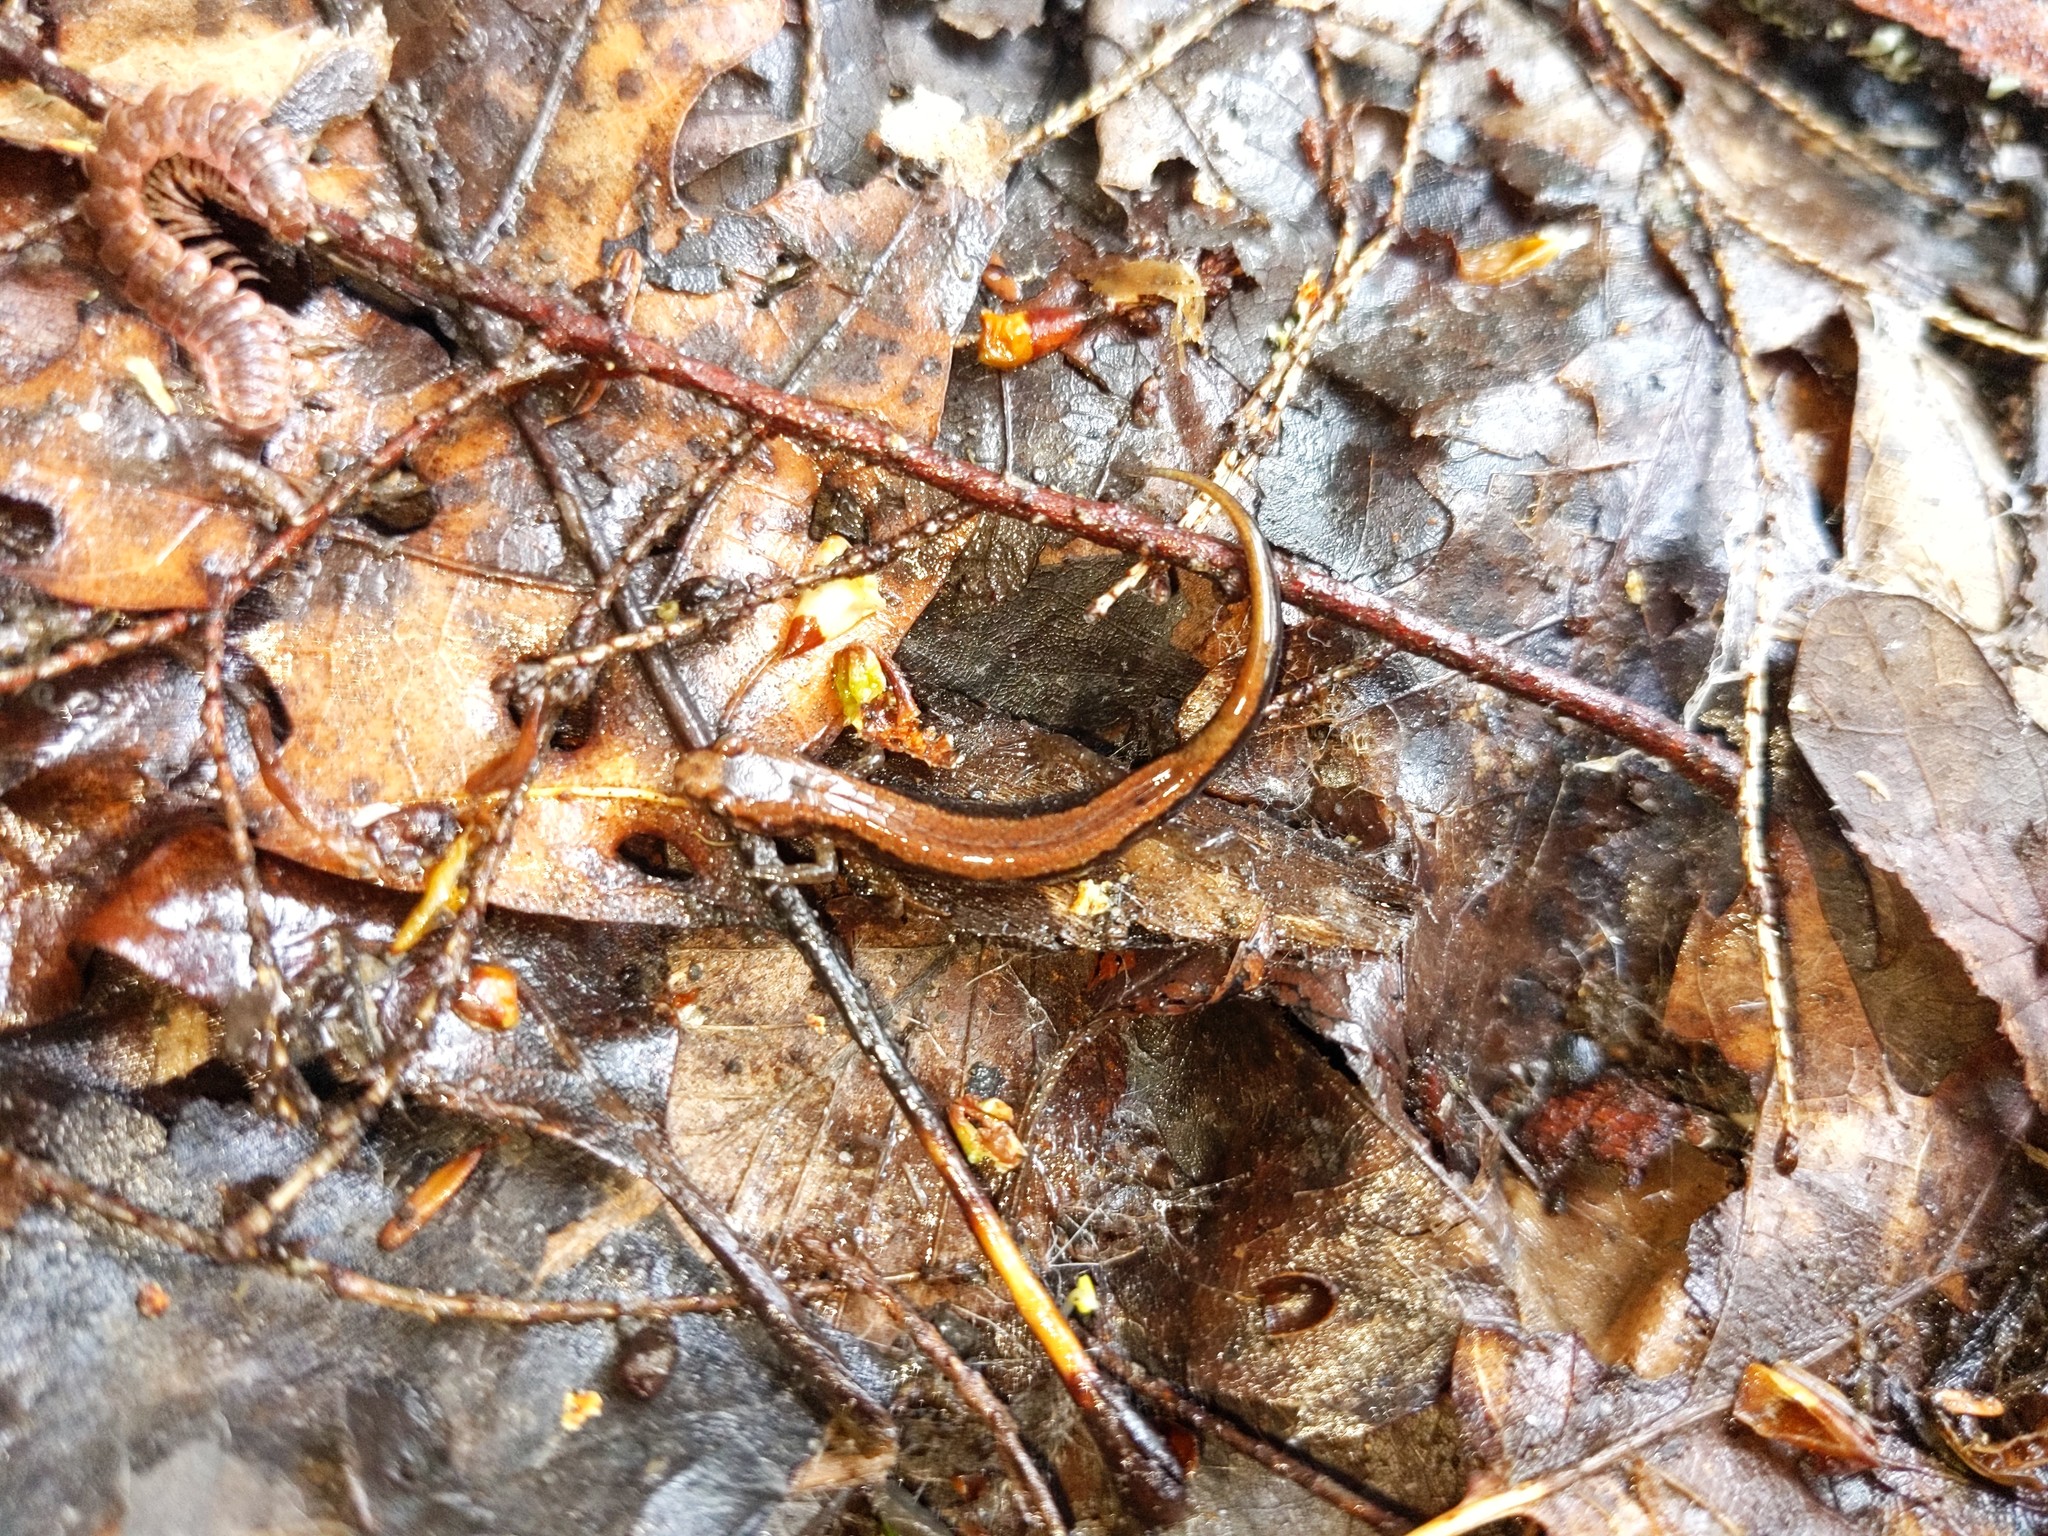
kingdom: Animalia
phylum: Chordata
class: Amphibia
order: Caudata
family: Plethodontidae
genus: Plethodon
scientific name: Plethodon cinereus
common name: Redback salamander
